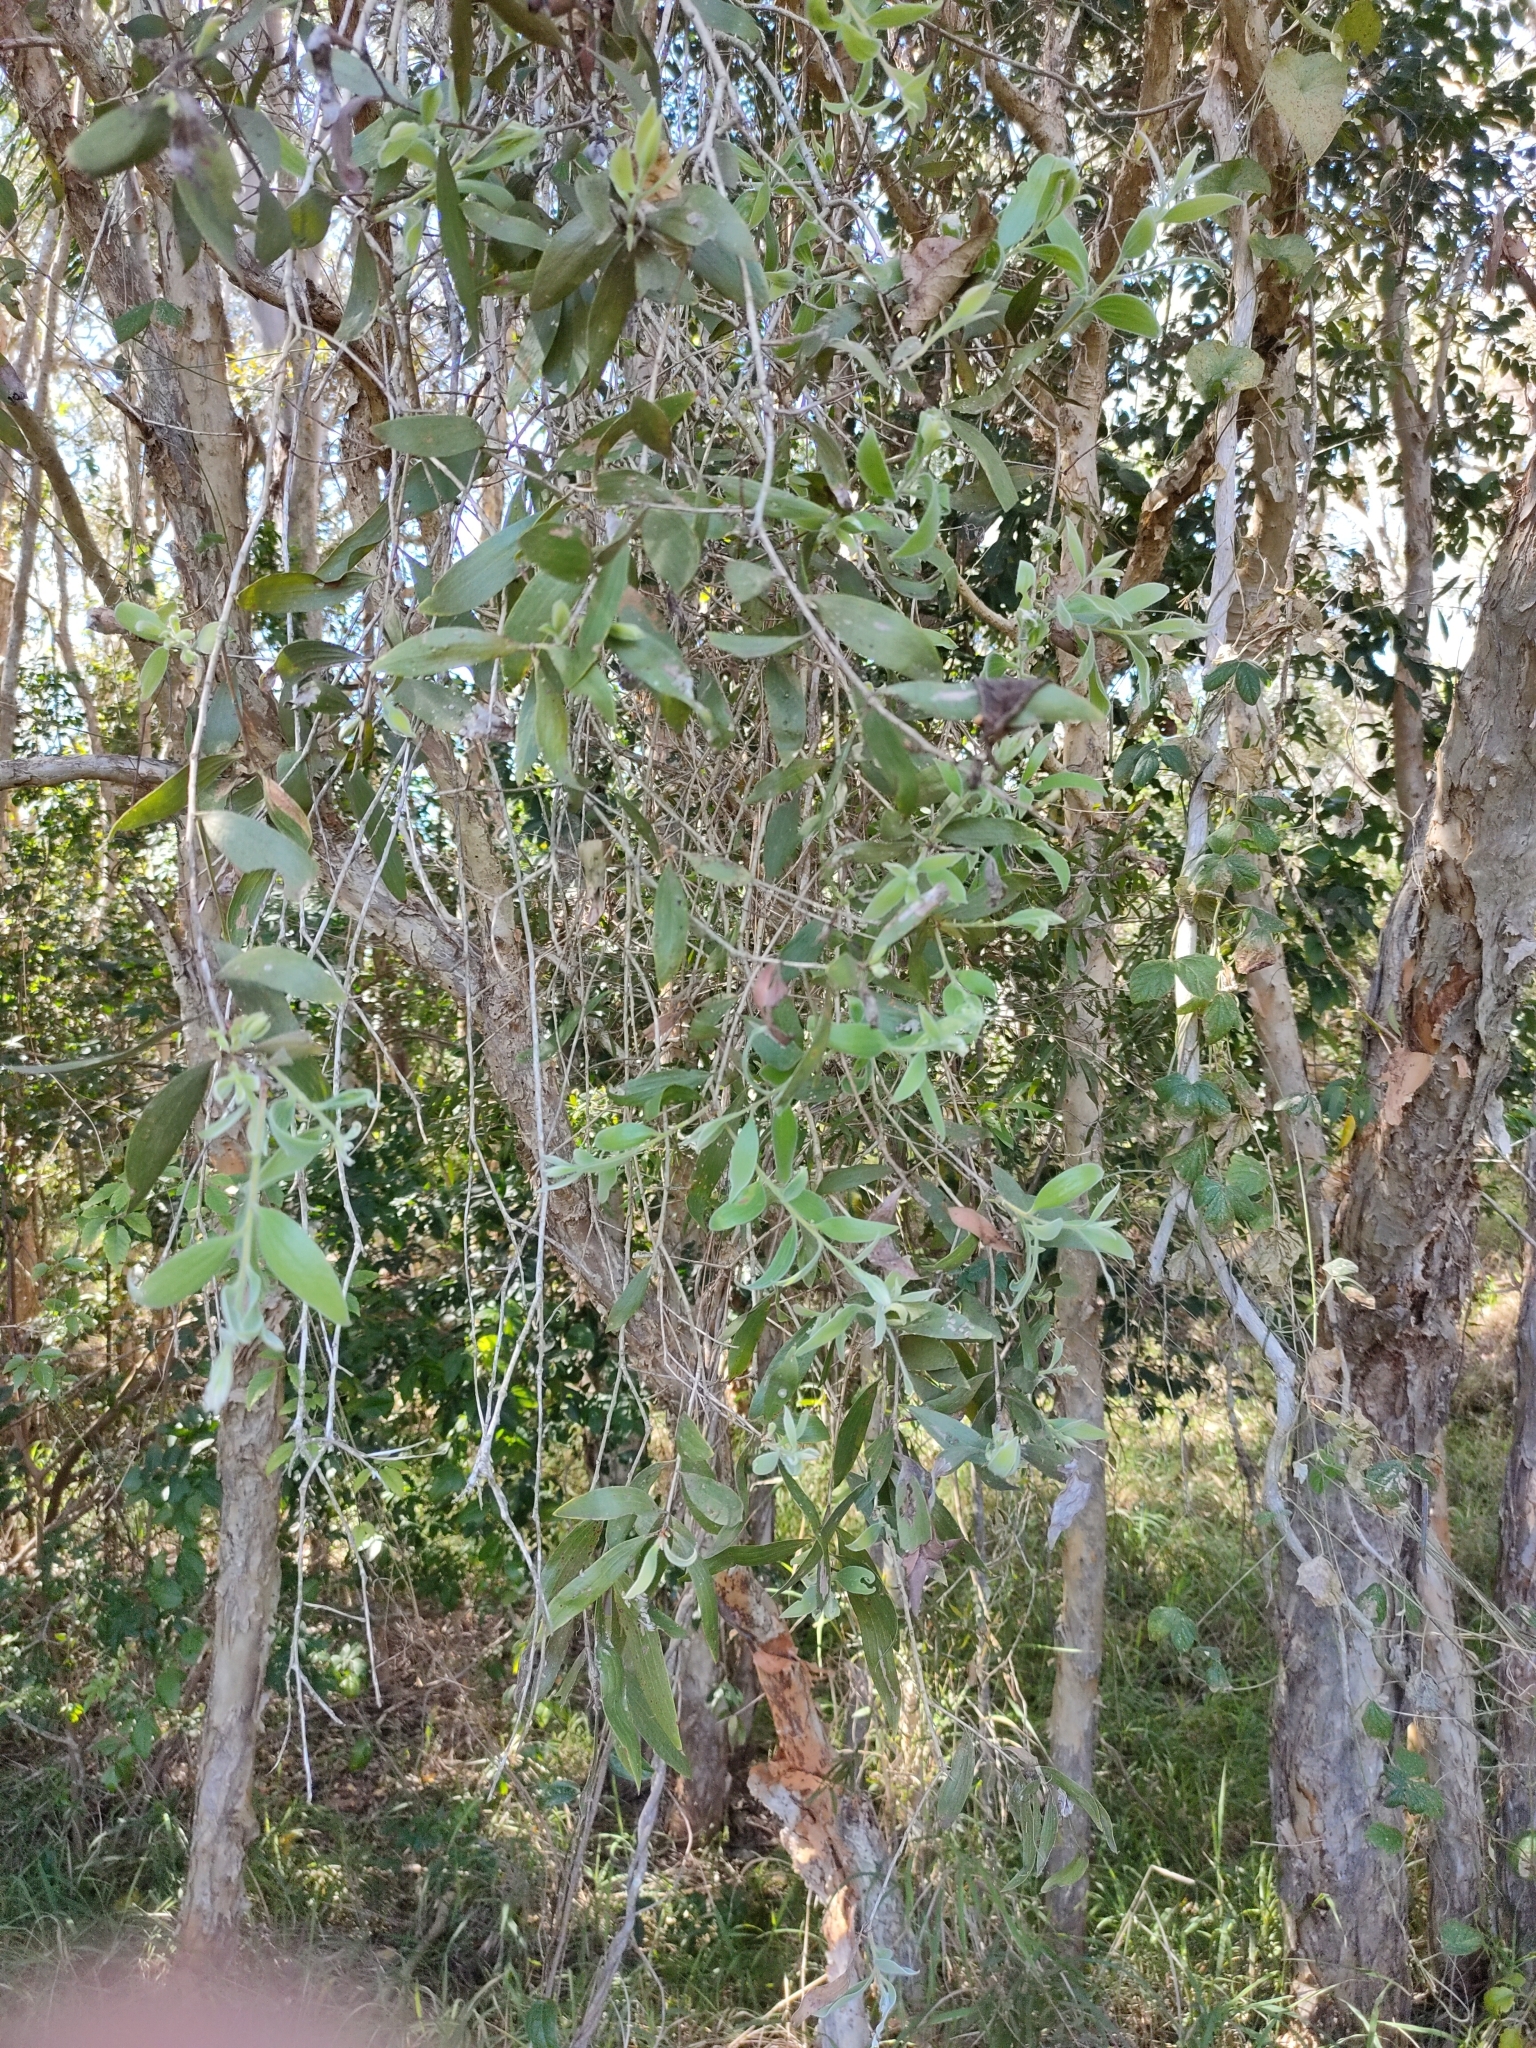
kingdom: Plantae
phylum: Tracheophyta
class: Magnoliopsida
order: Myrtales
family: Myrtaceae
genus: Melaleuca
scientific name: Melaleuca dealbata
